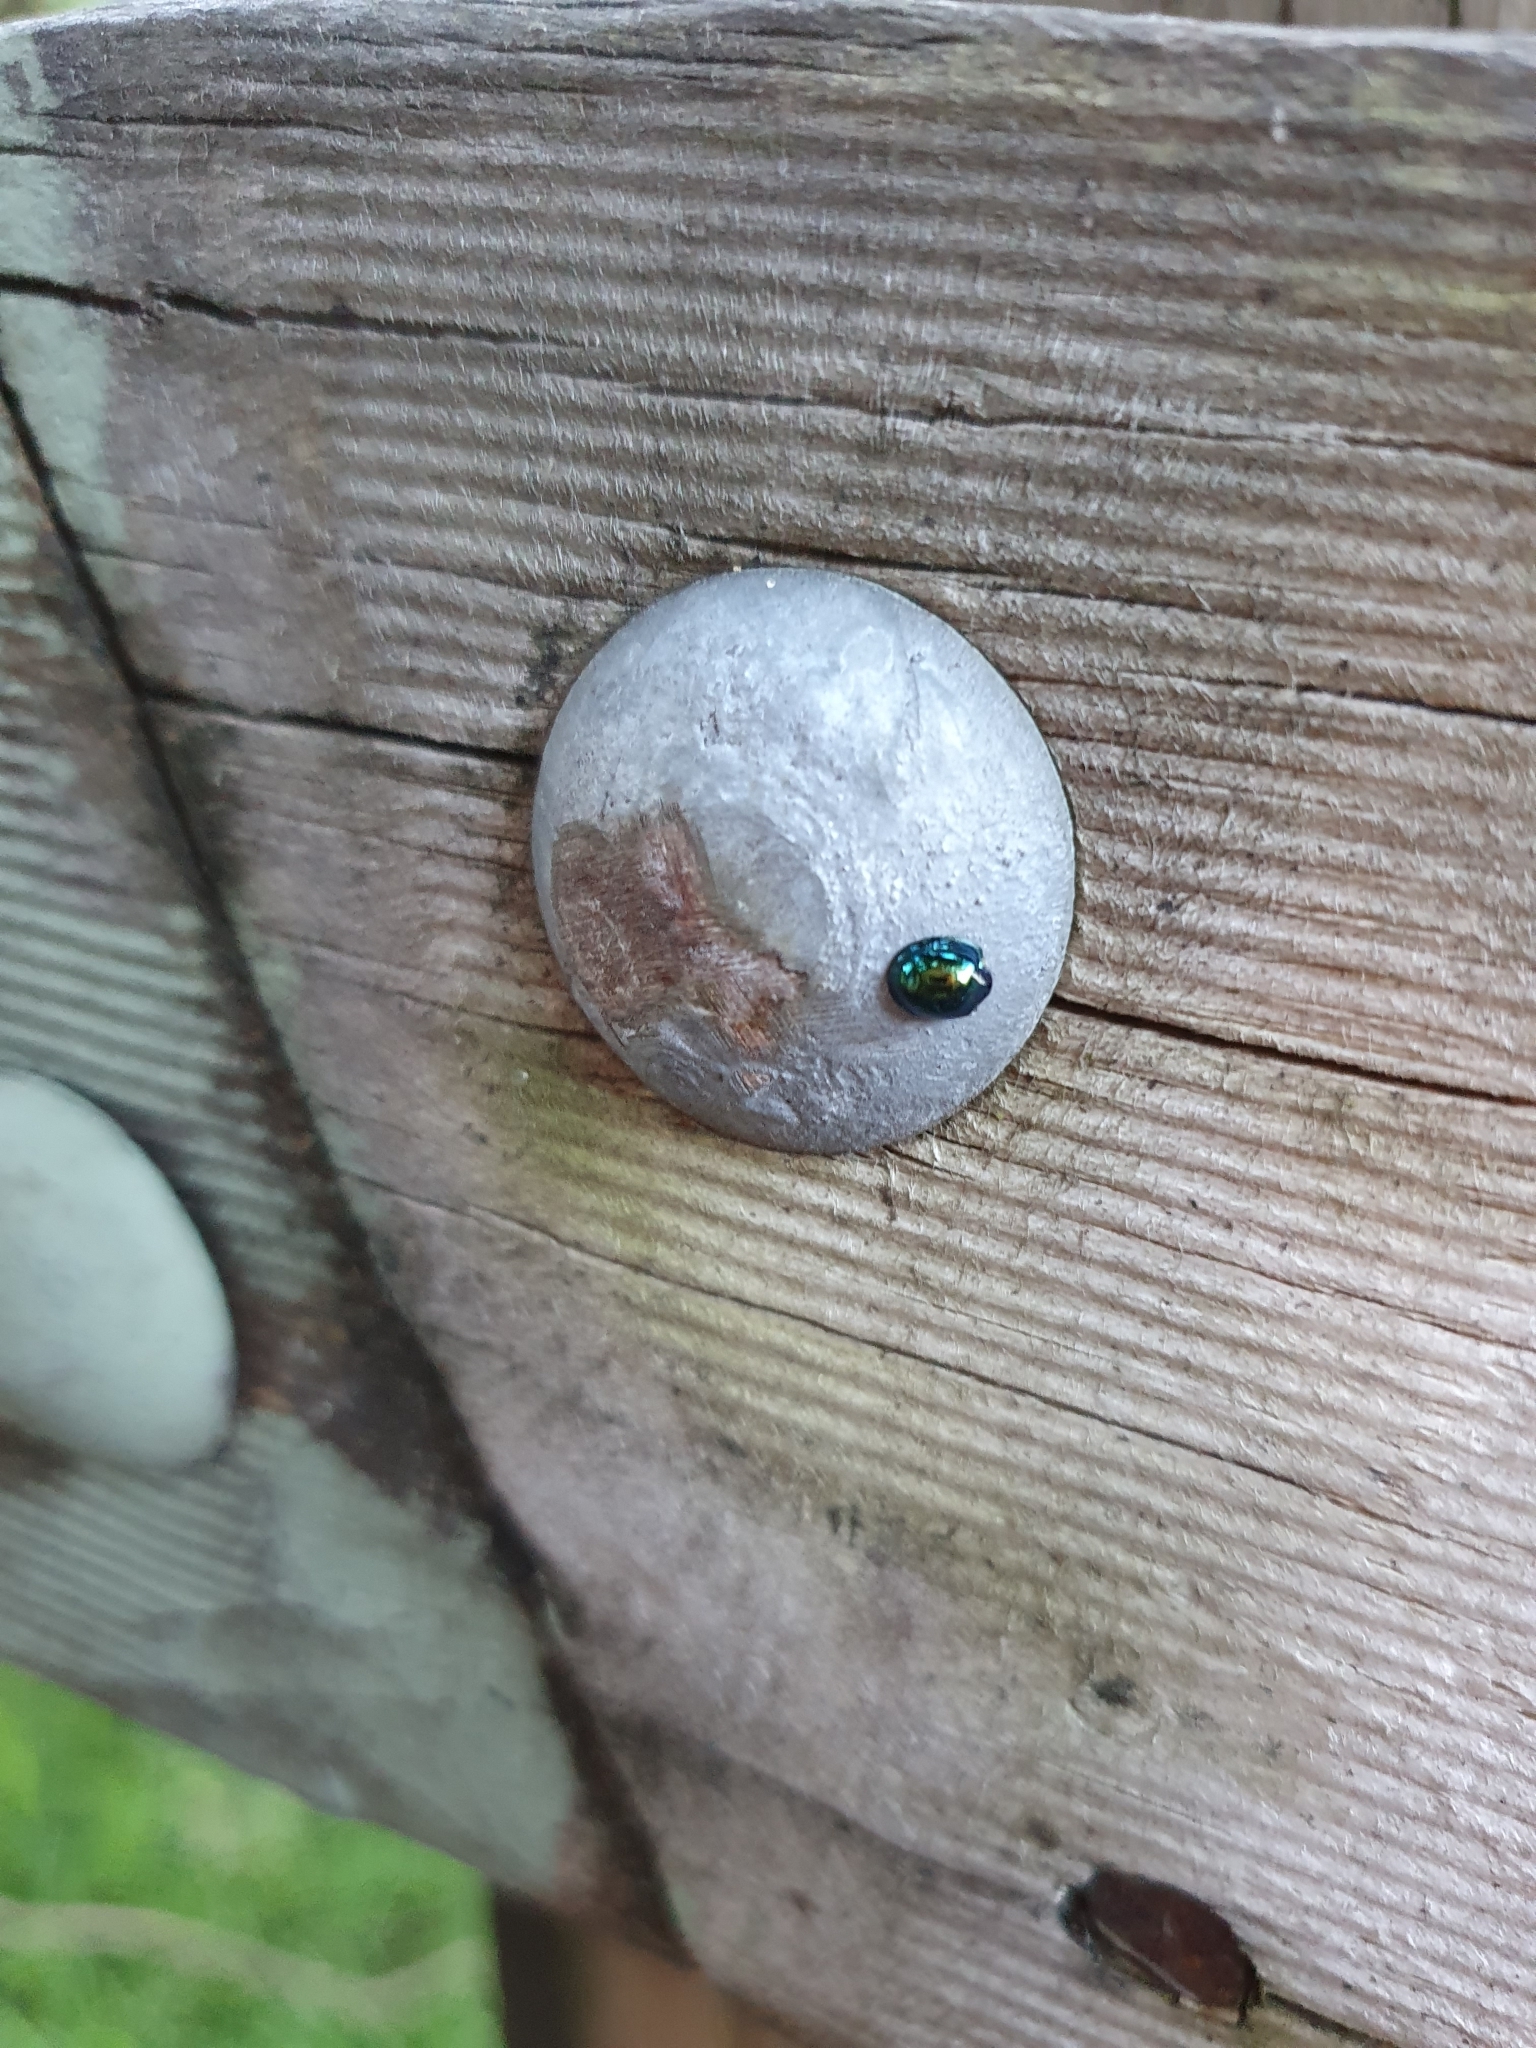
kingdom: Animalia
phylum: Arthropoda
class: Insecta
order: Coleoptera
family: Coccinellidae
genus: Halmus
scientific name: Halmus chalybeus
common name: Steel blue ladybird beetle
